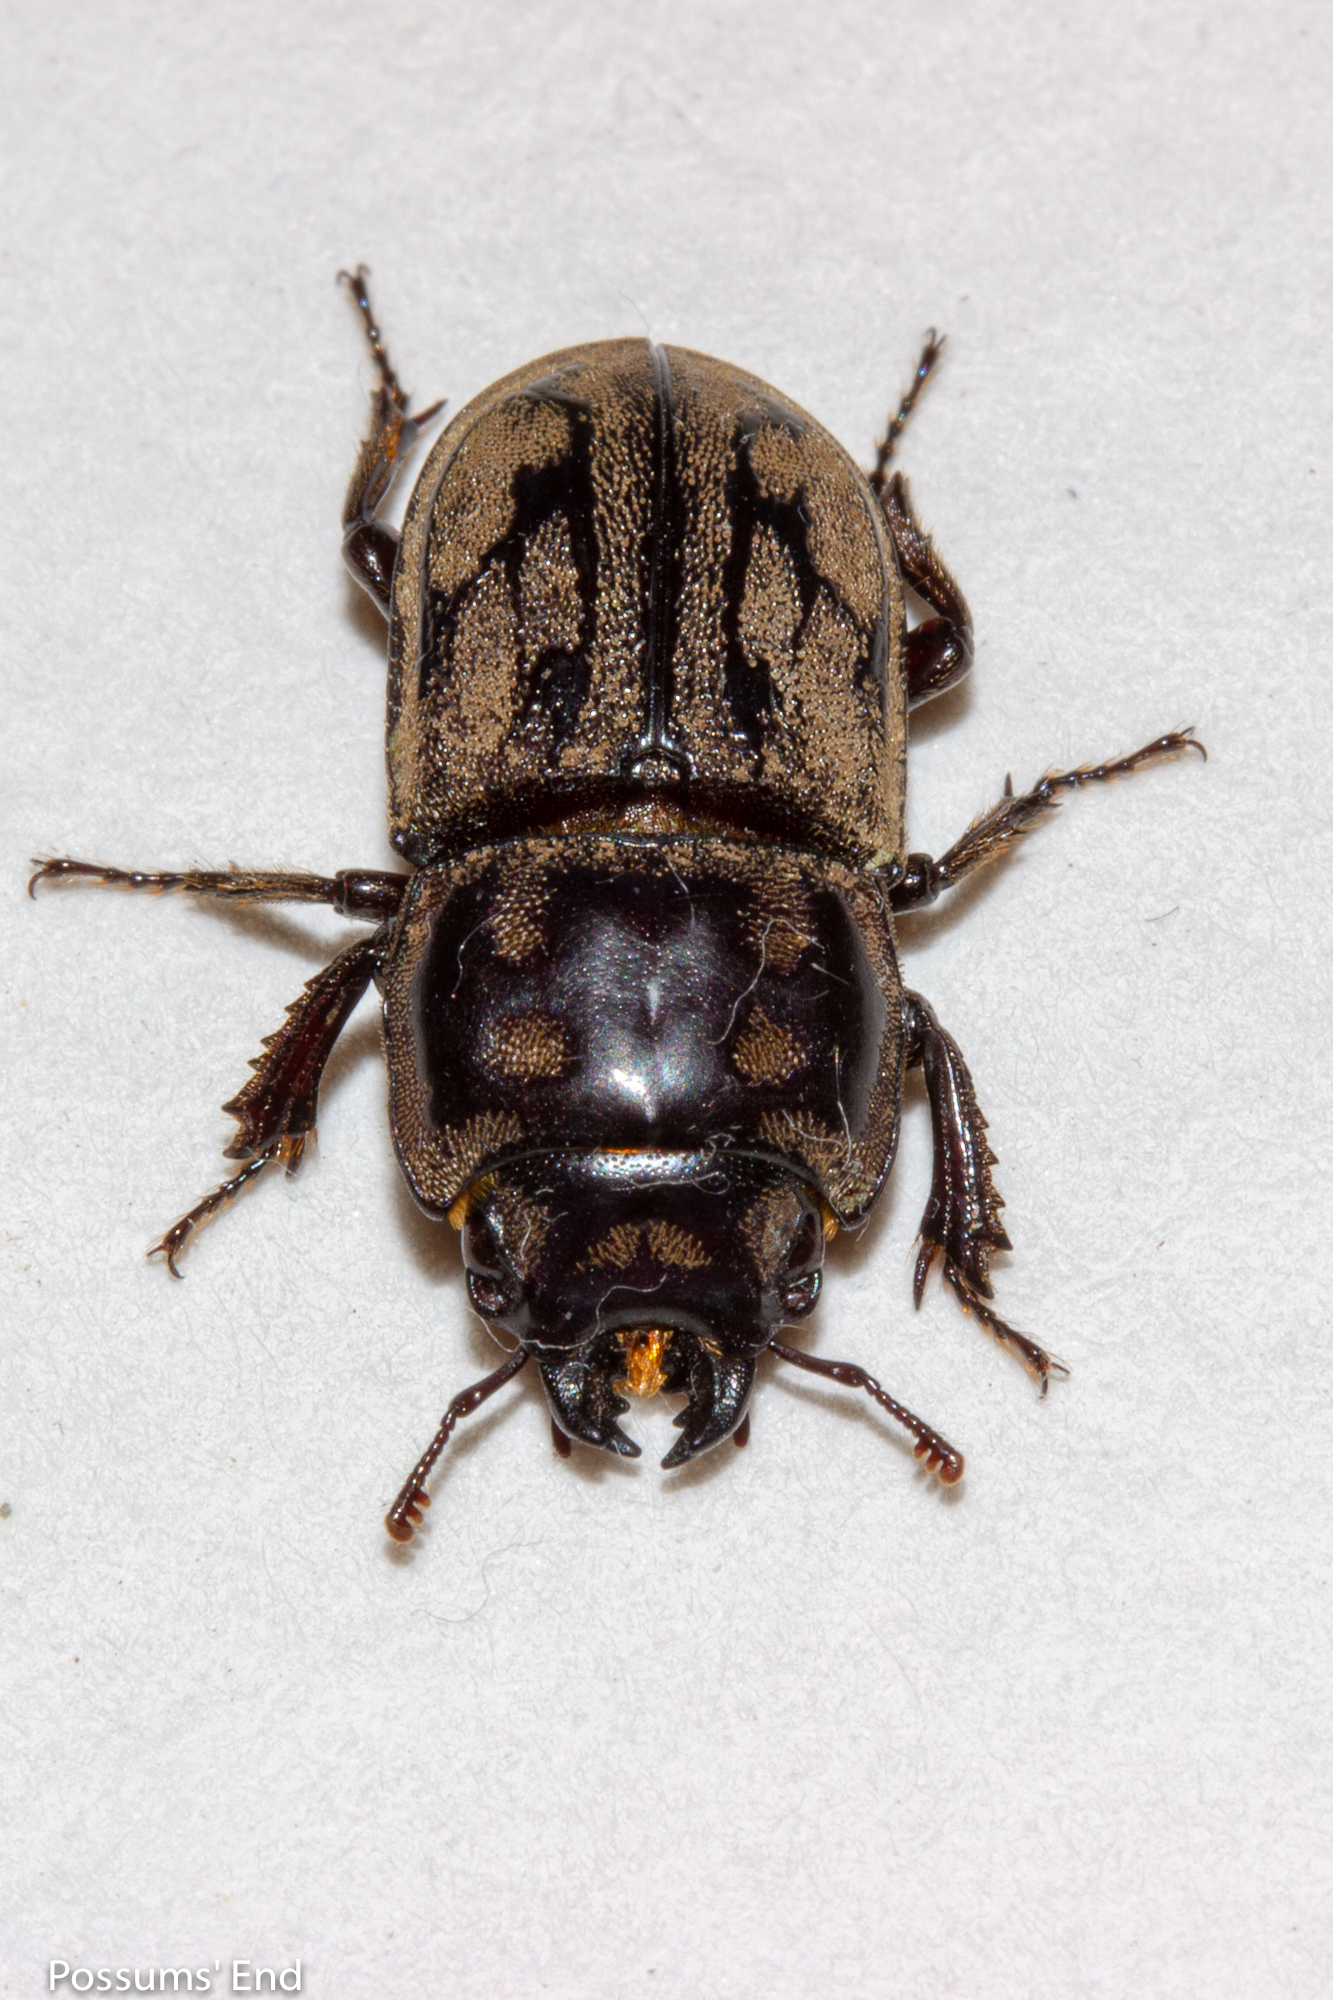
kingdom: Animalia
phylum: Arthropoda
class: Insecta
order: Coleoptera
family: Lucanidae
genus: Paralissotes
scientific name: Paralissotes reticulatus
